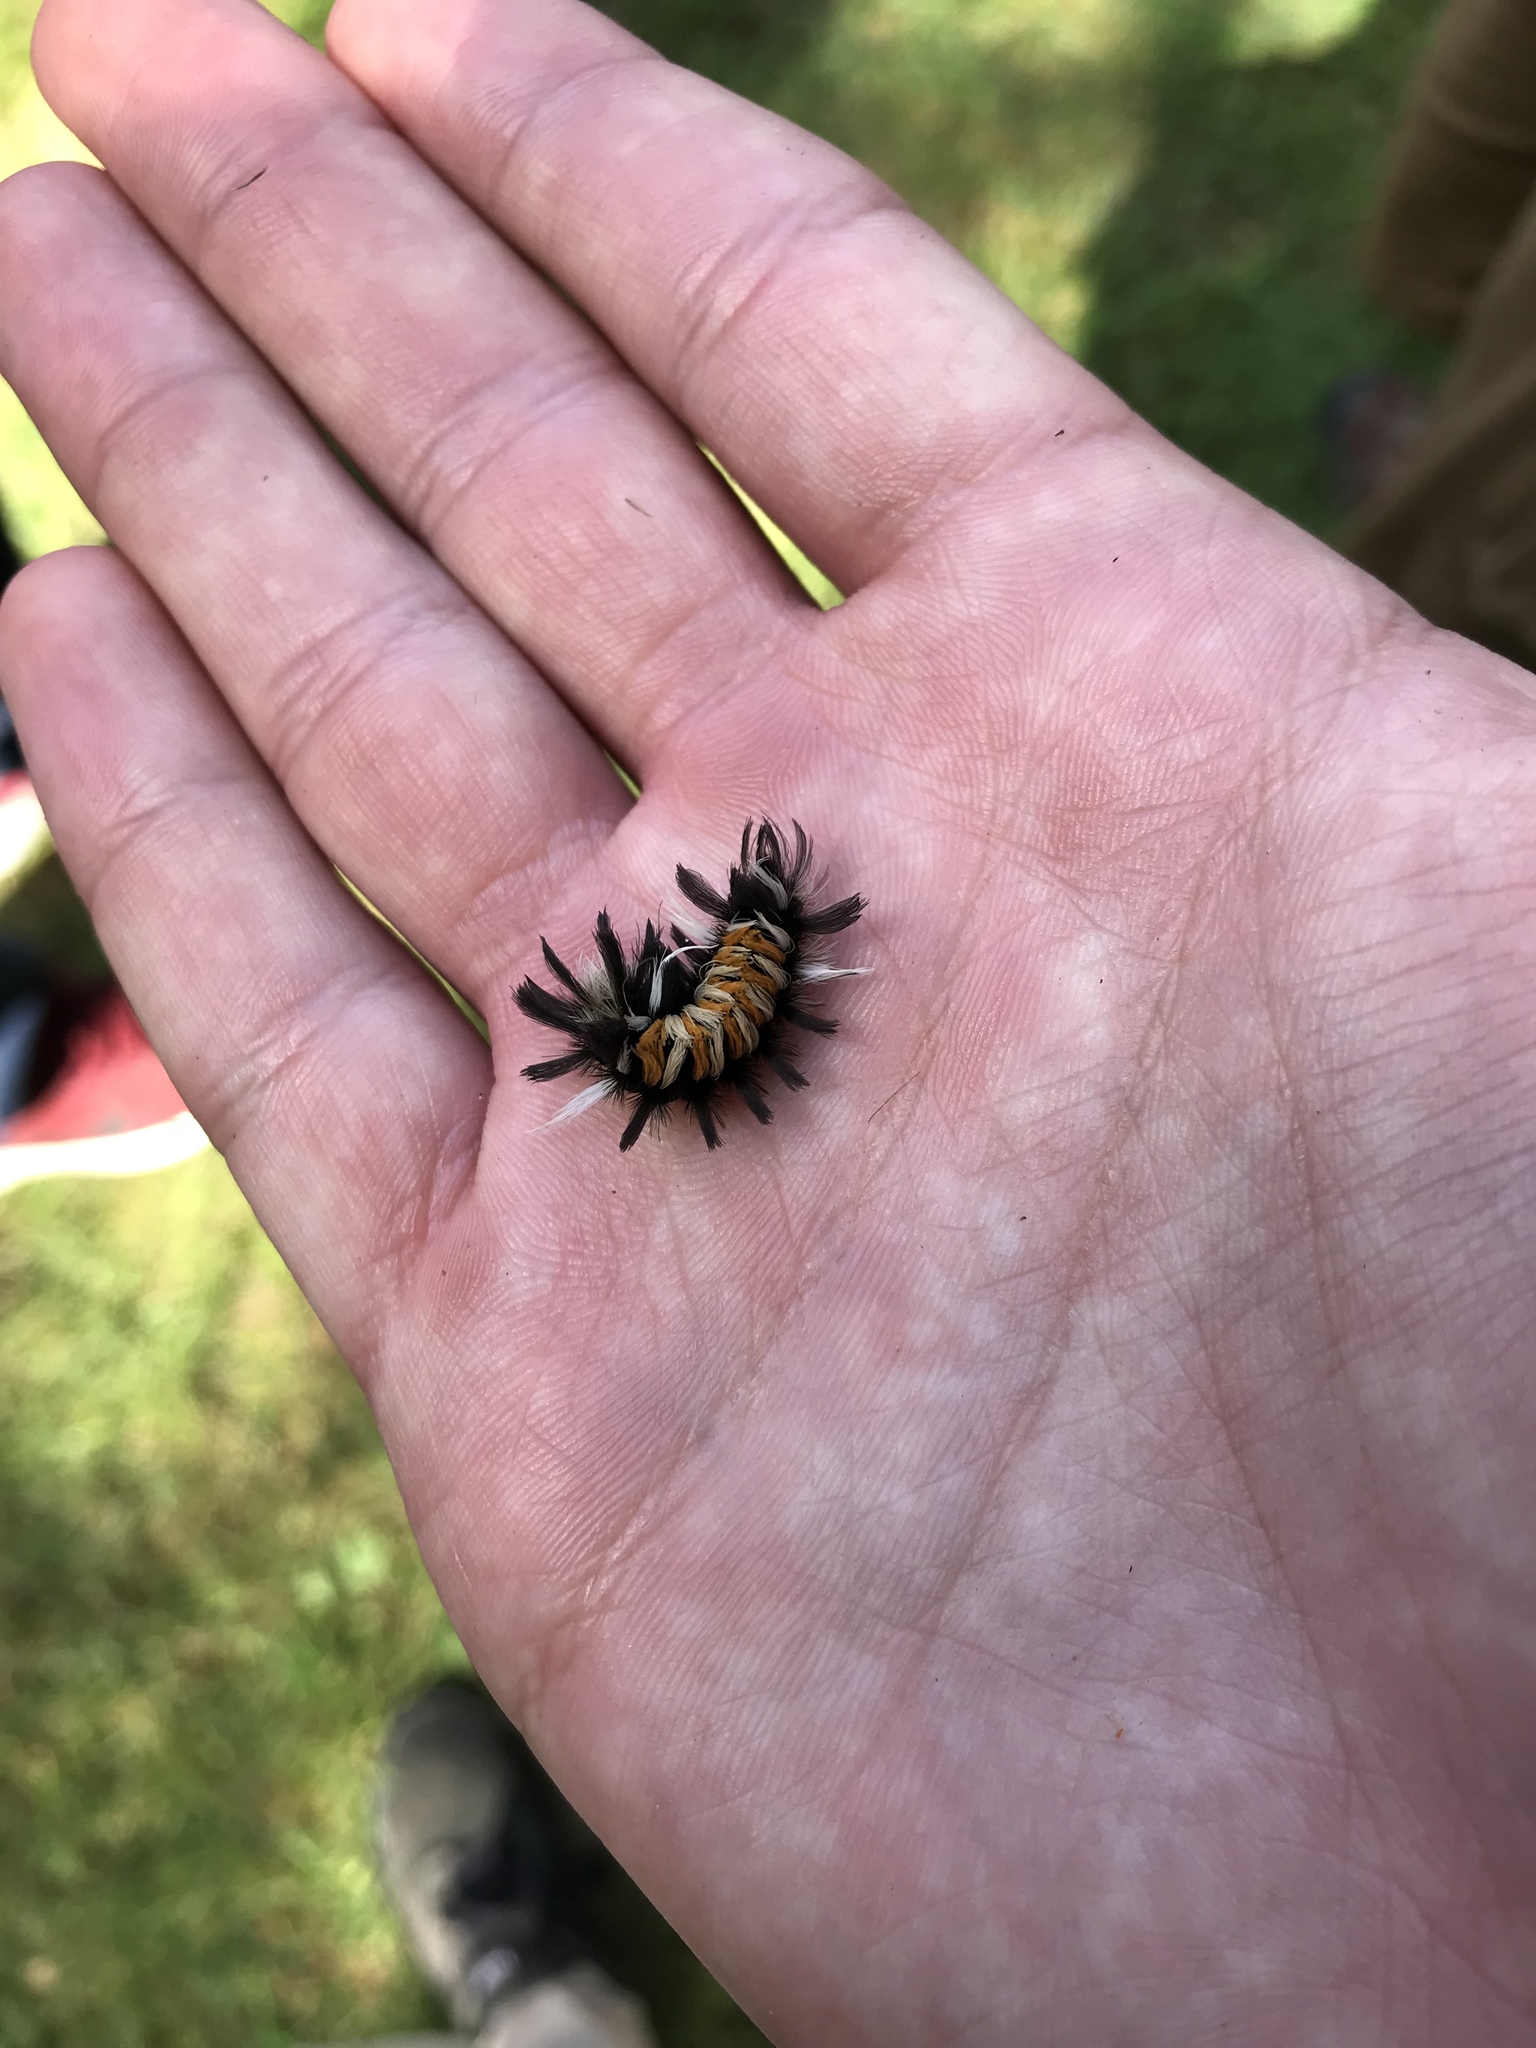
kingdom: Animalia
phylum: Arthropoda
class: Insecta
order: Lepidoptera
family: Erebidae
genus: Euchaetes
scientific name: Euchaetes egle
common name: Milkweed tussock moth
